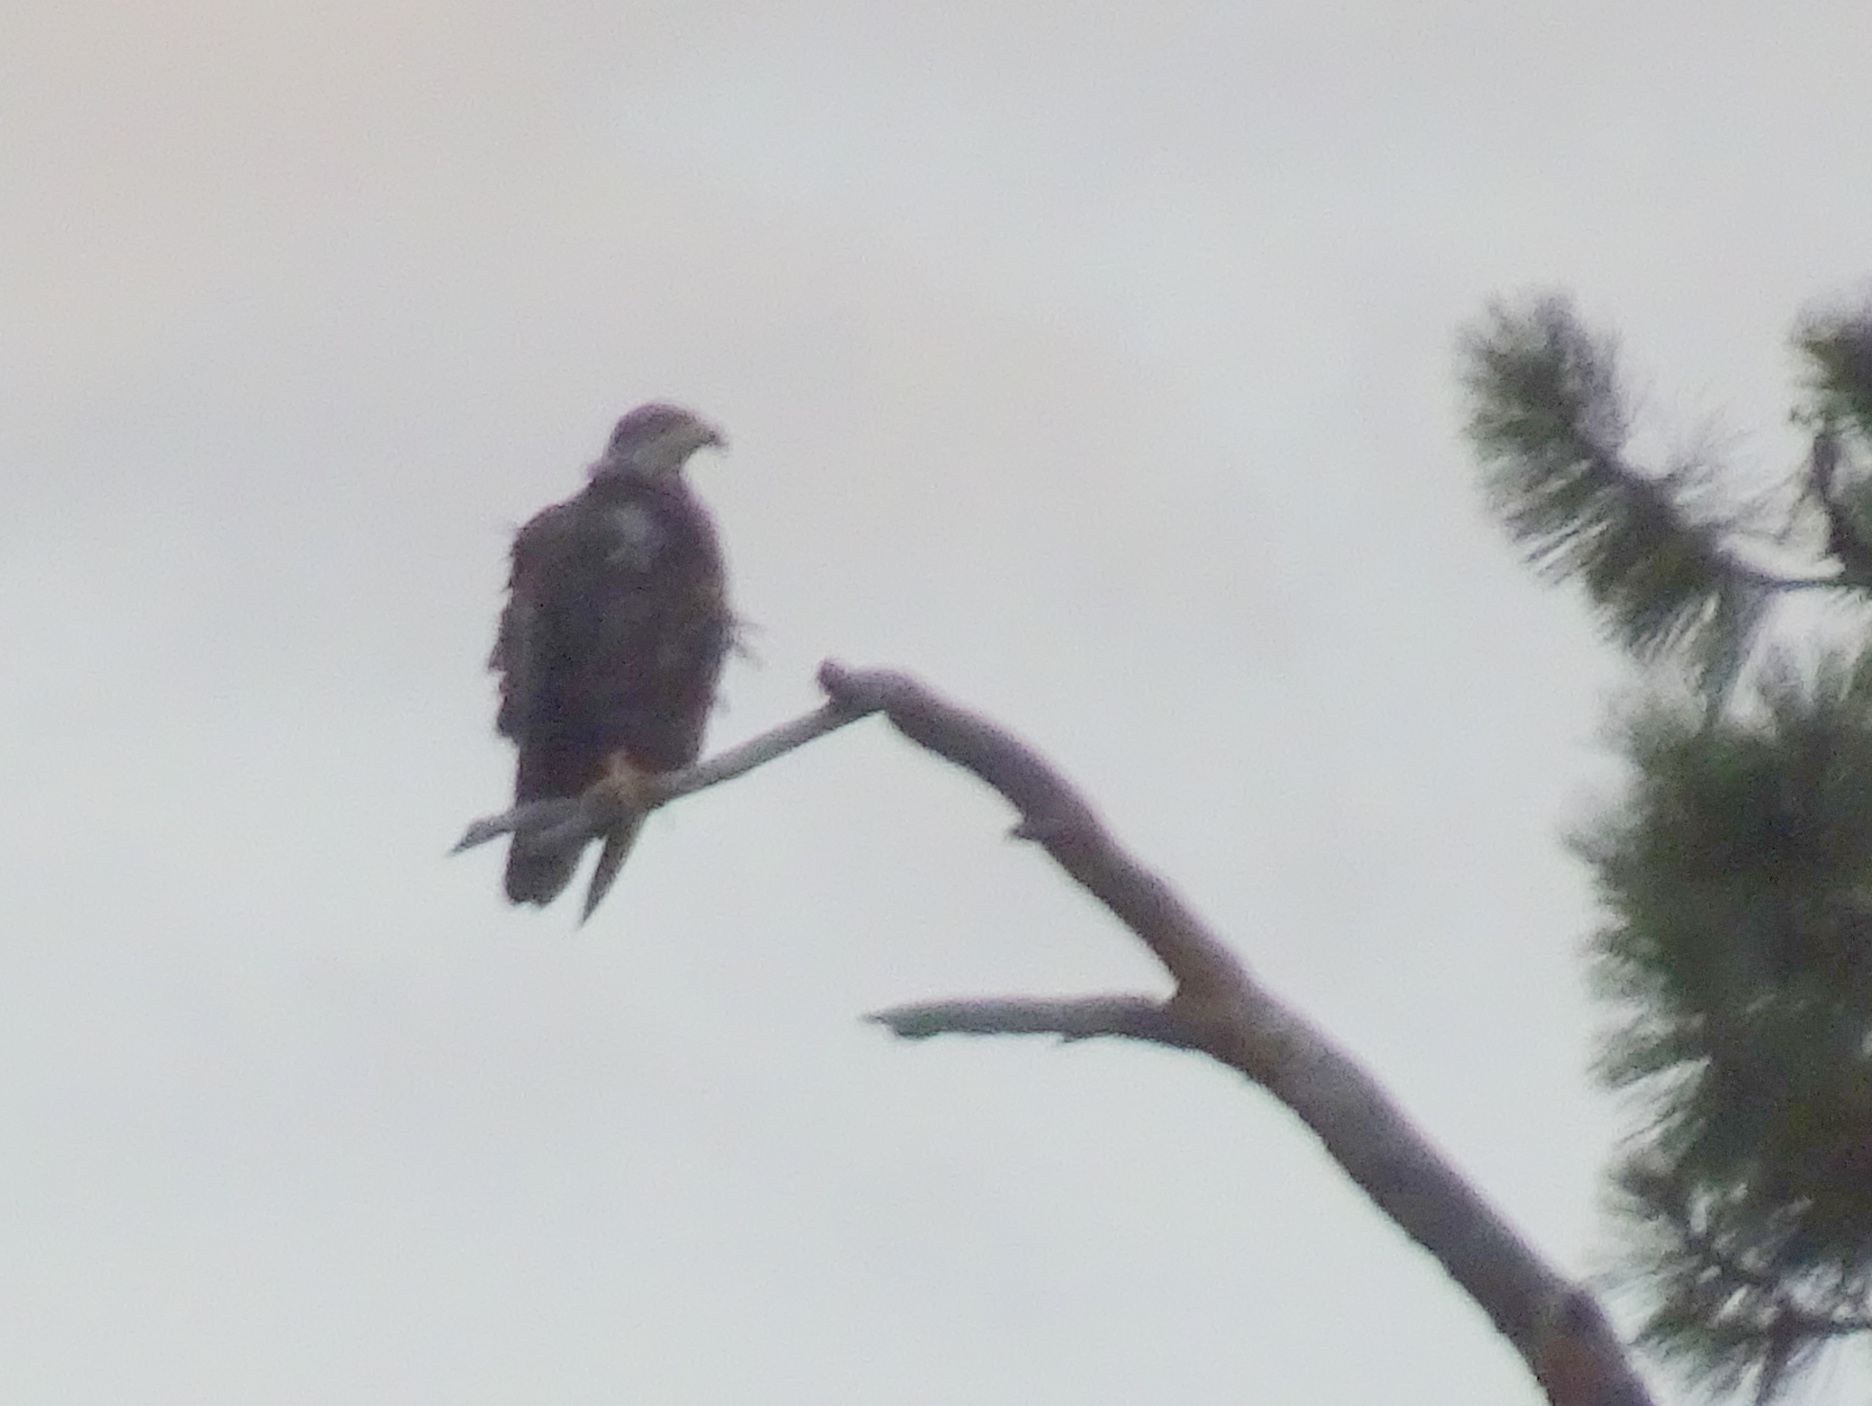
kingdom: Animalia
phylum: Chordata
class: Aves
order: Accipitriformes
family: Accipitridae
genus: Haliaeetus
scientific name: Haliaeetus leucocephalus
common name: Bald eagle
